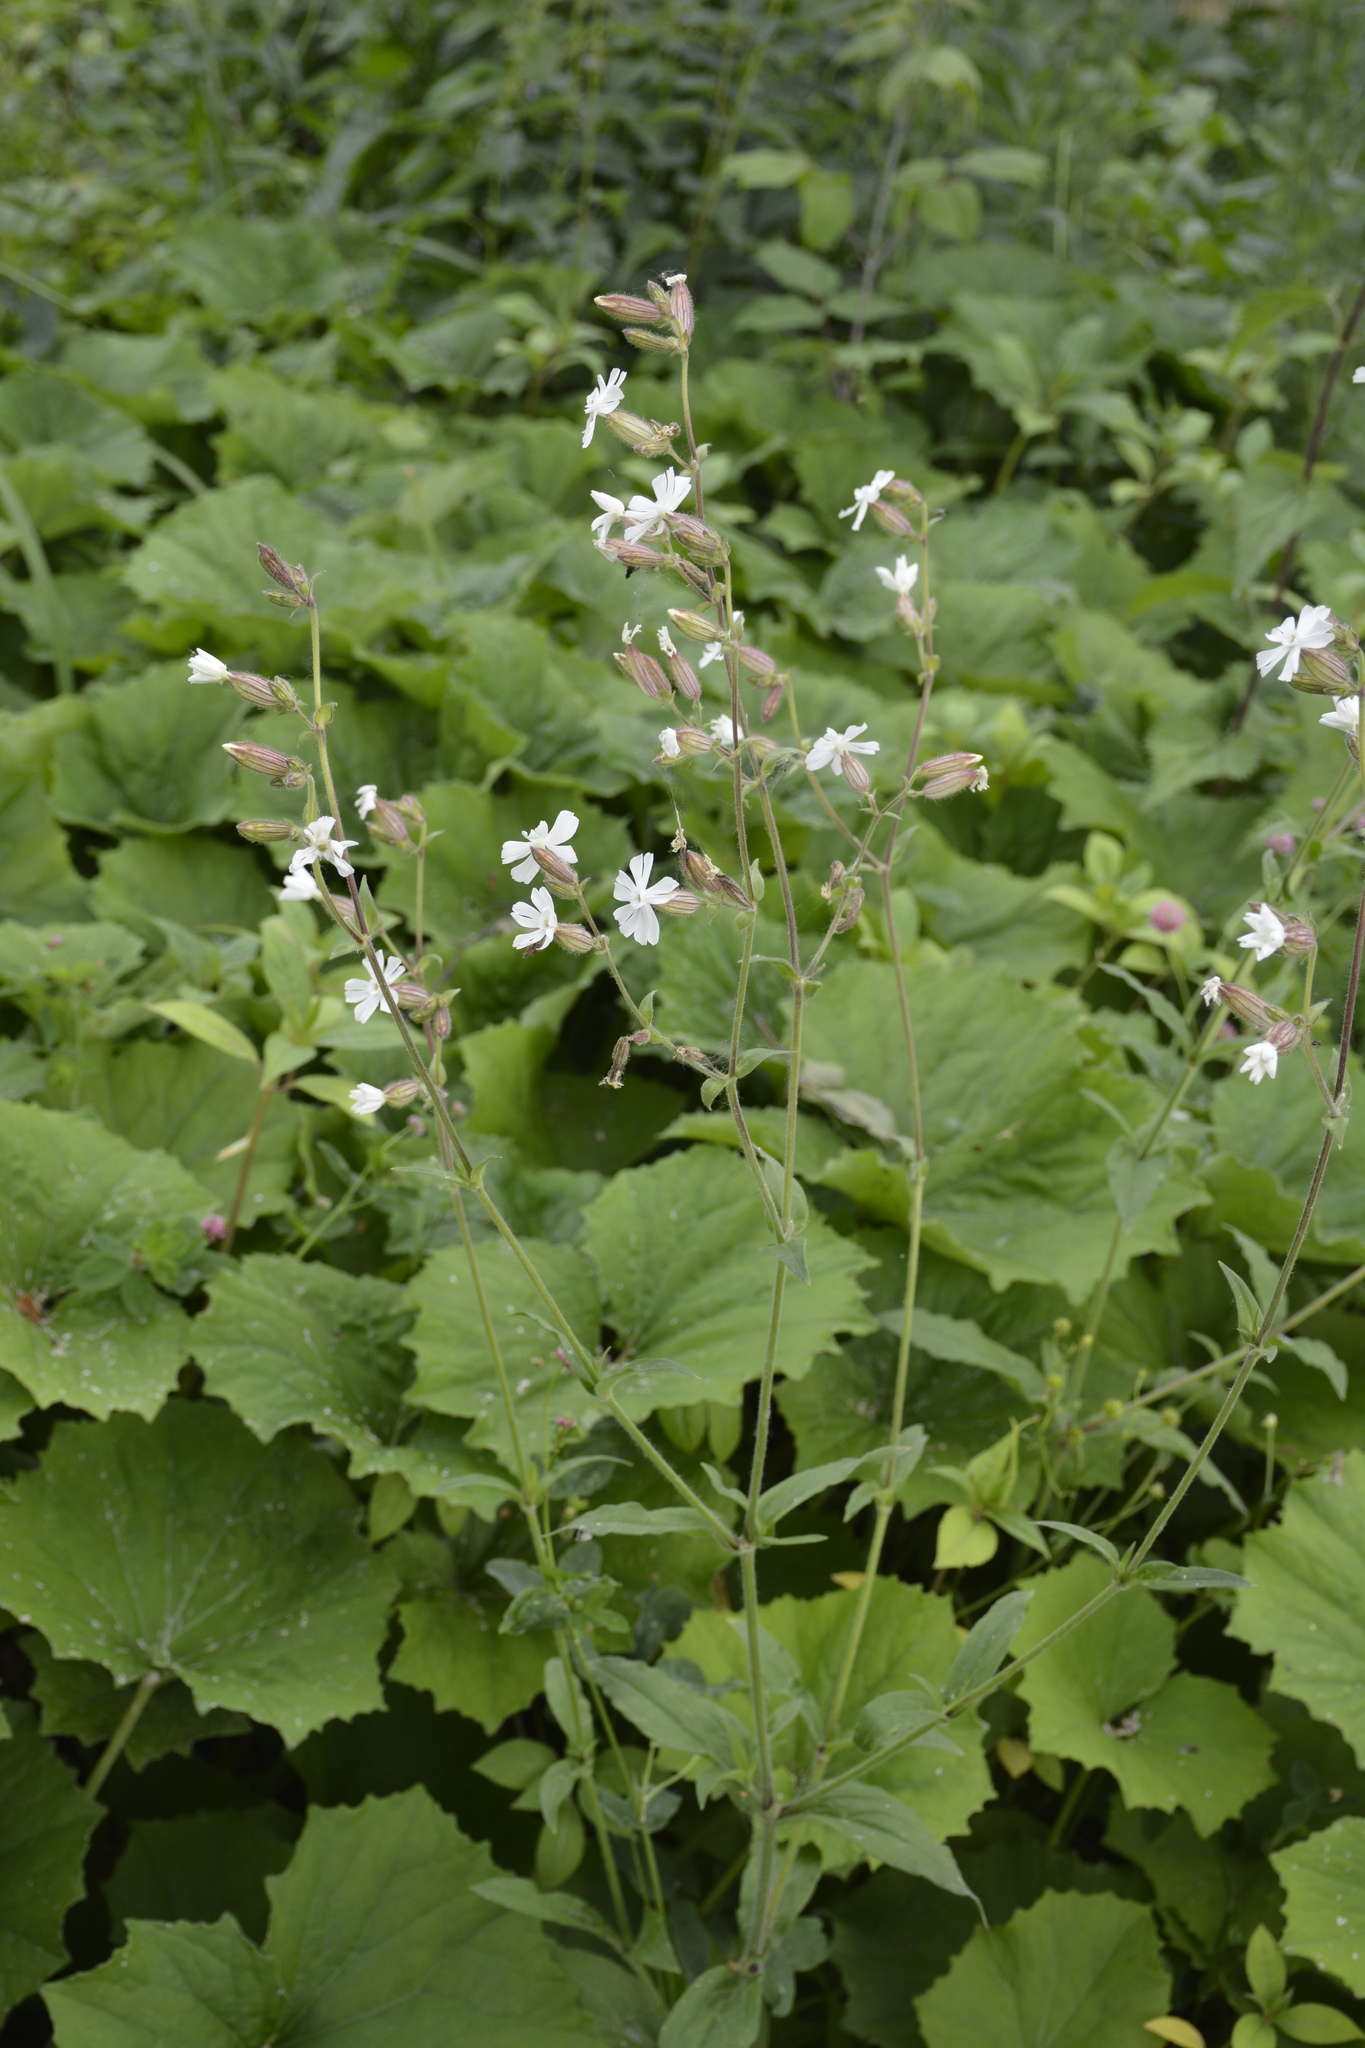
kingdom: Plantae
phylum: Tracheophyta
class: Magnoliopsida
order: Caryophyllales
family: Caryophyllaceae
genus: Silene
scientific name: Silene latifolia
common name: White campion
